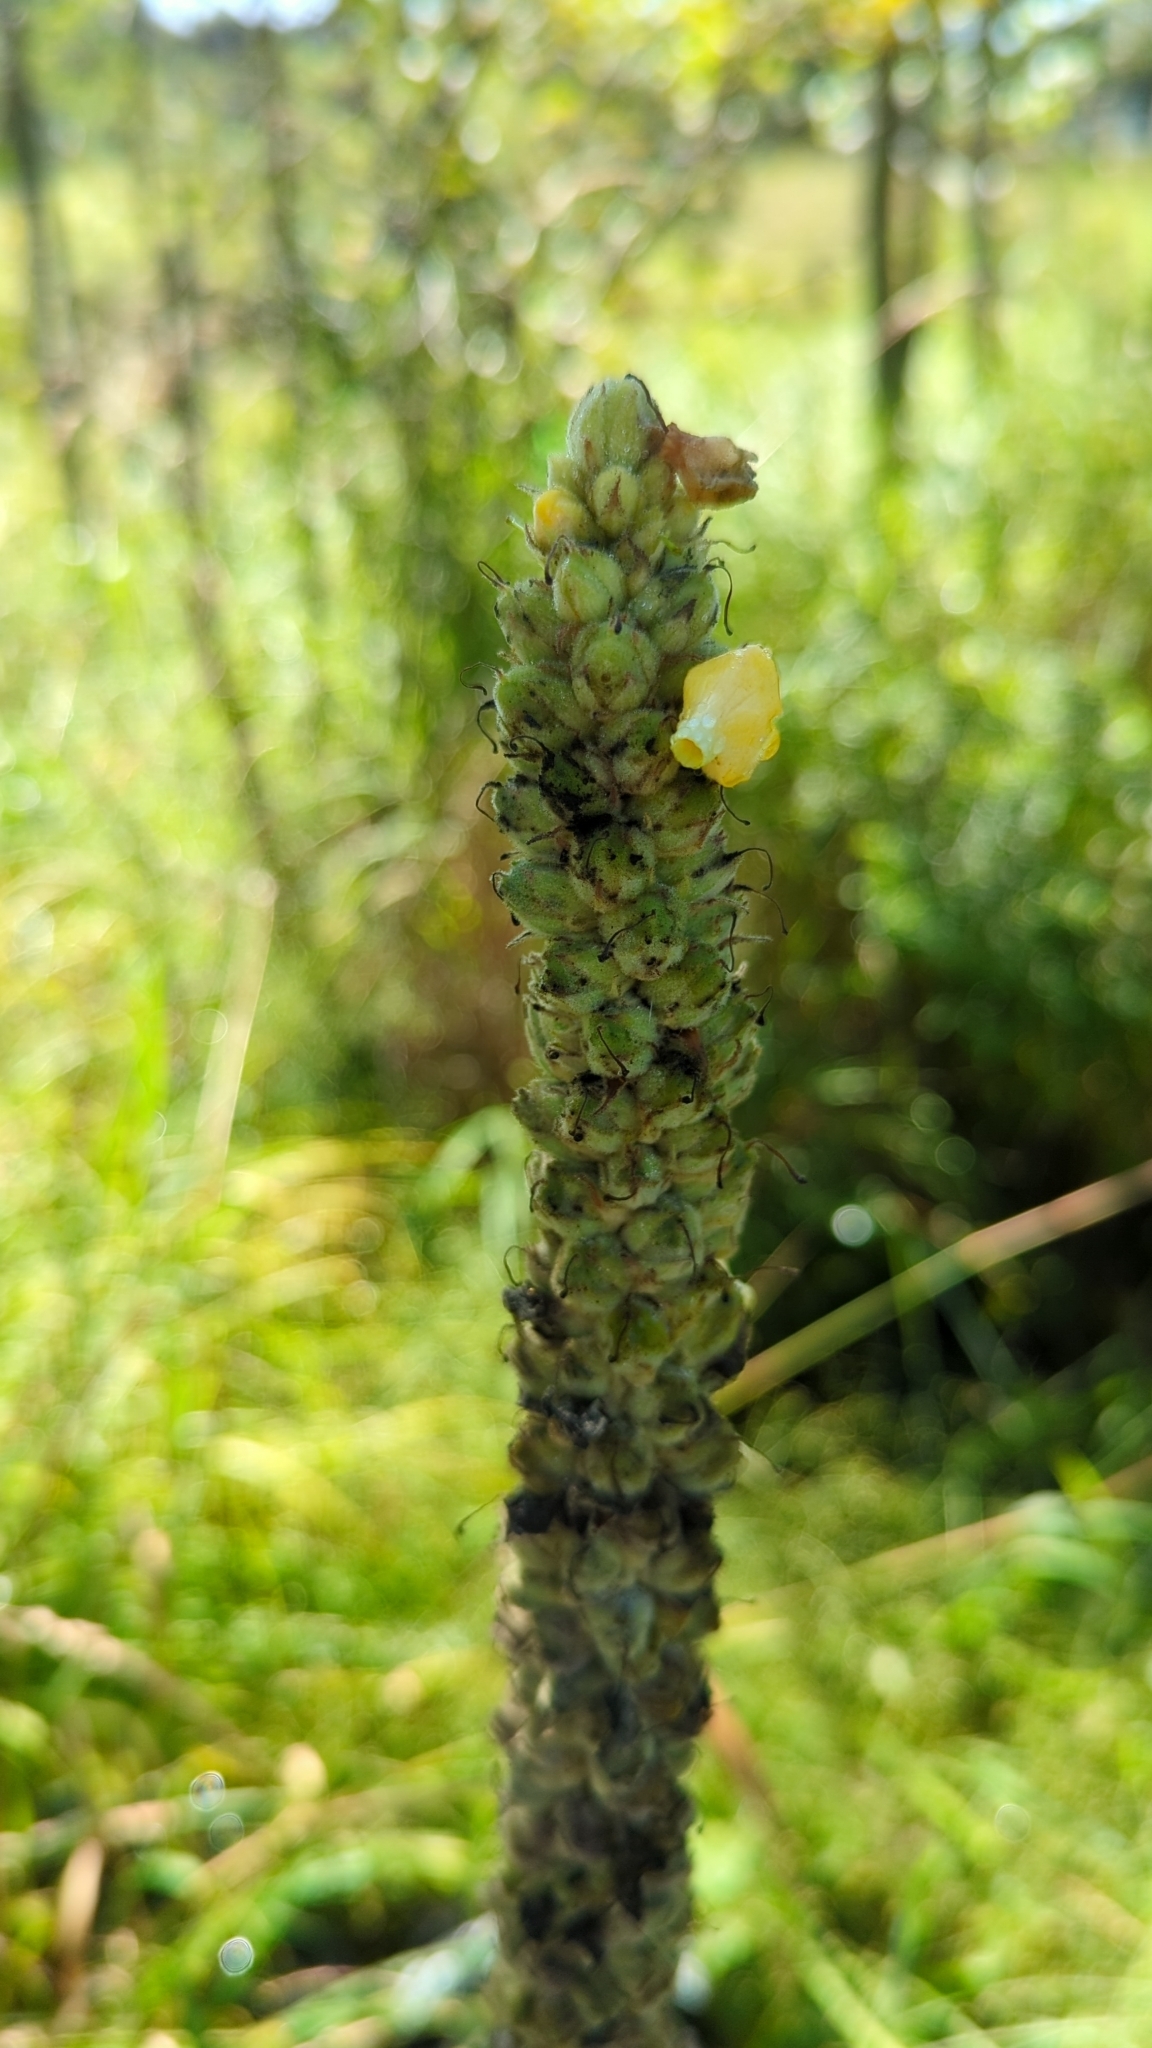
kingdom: Plantae
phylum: Tracheophyta
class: Magnoliopsida
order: Lamiales
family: Scrophulariaceae
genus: Verbascum
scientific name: Verbascum thapsus
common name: Common mullein
